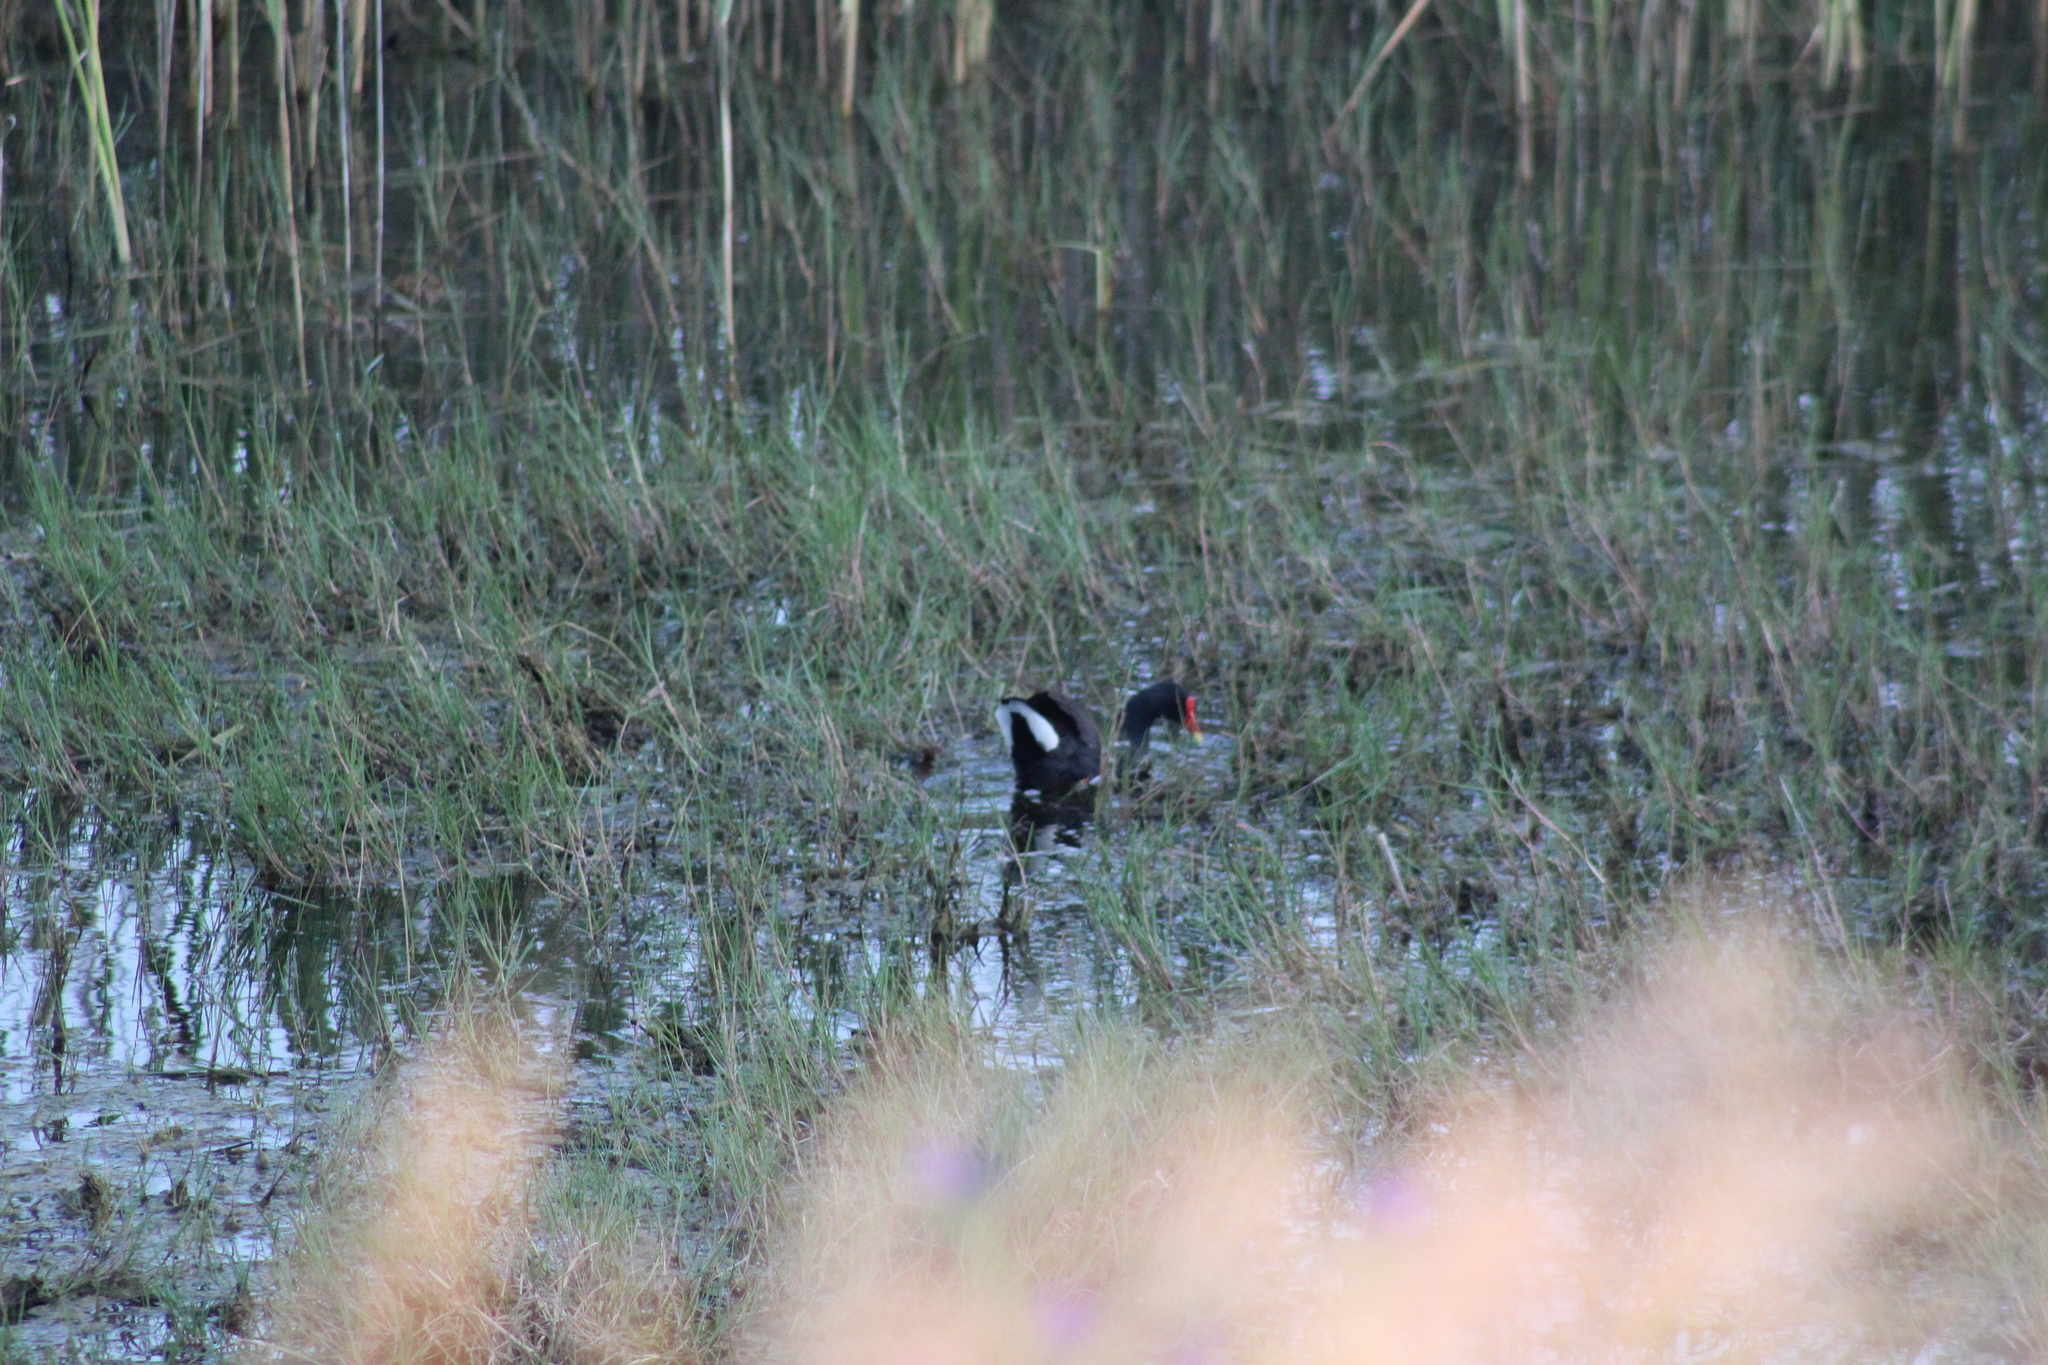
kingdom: Animalia
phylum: Chordata
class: Aves
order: Gruiformes
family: Rallidae
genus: Gallinula
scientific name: Gallinula chloropus
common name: Common moorhen
